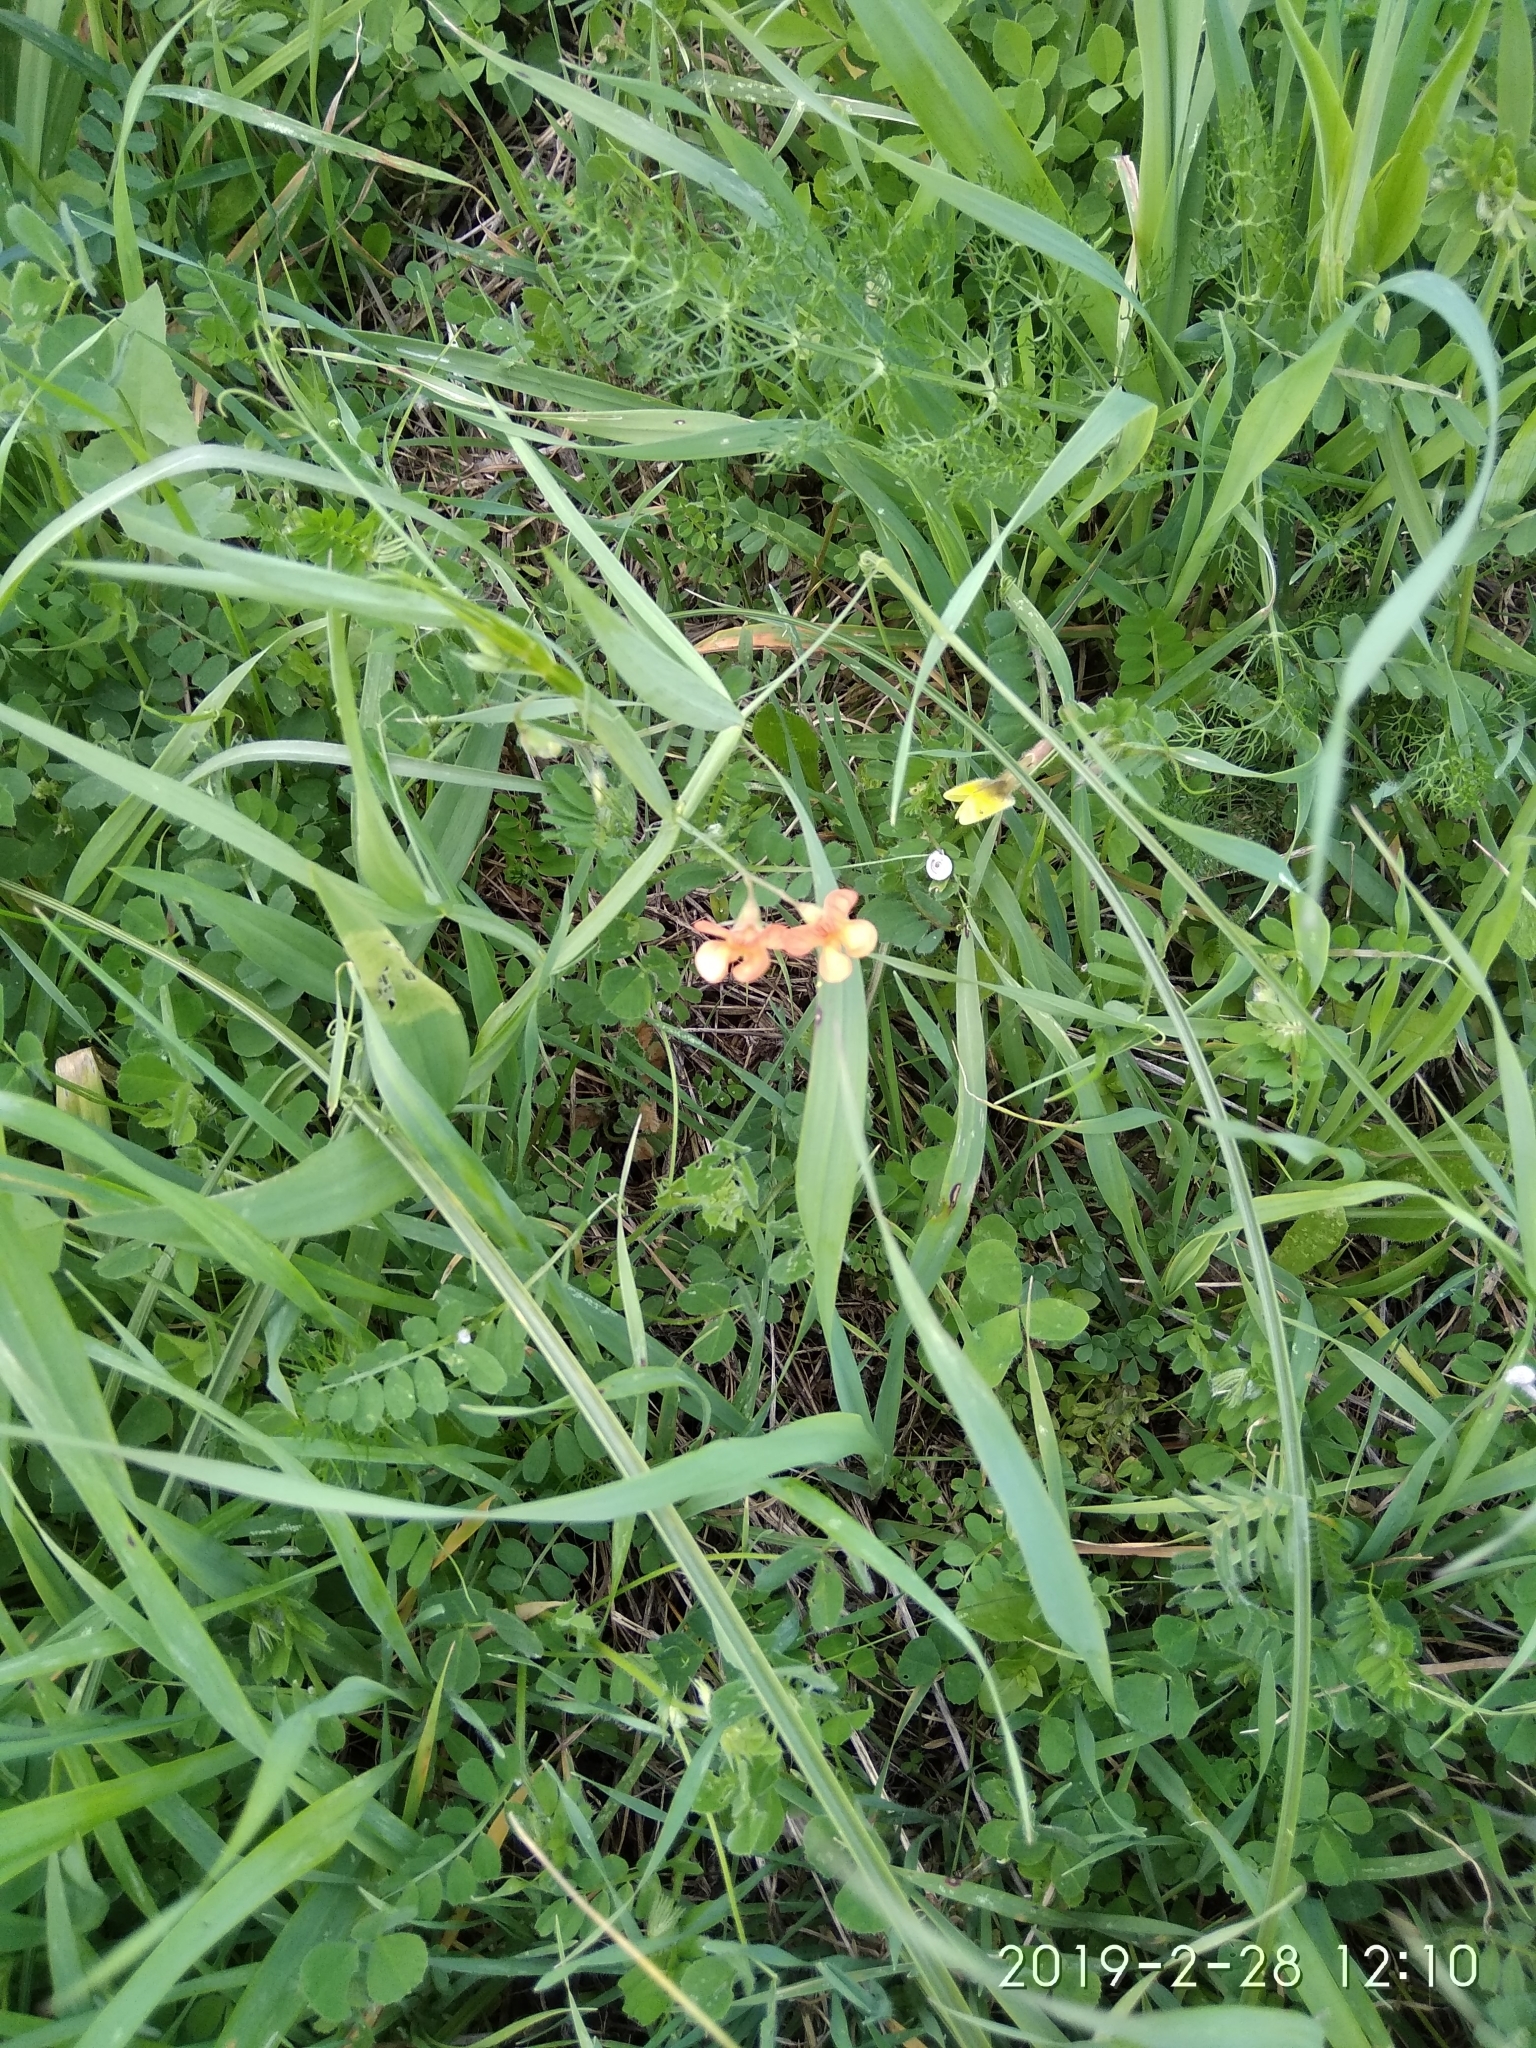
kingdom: Plantae
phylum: Tracheophyta
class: Magnoliopsida
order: Fabales
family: Fabaceae
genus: Lathyrus
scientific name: Lathyrus annuus
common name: Fodder pea
